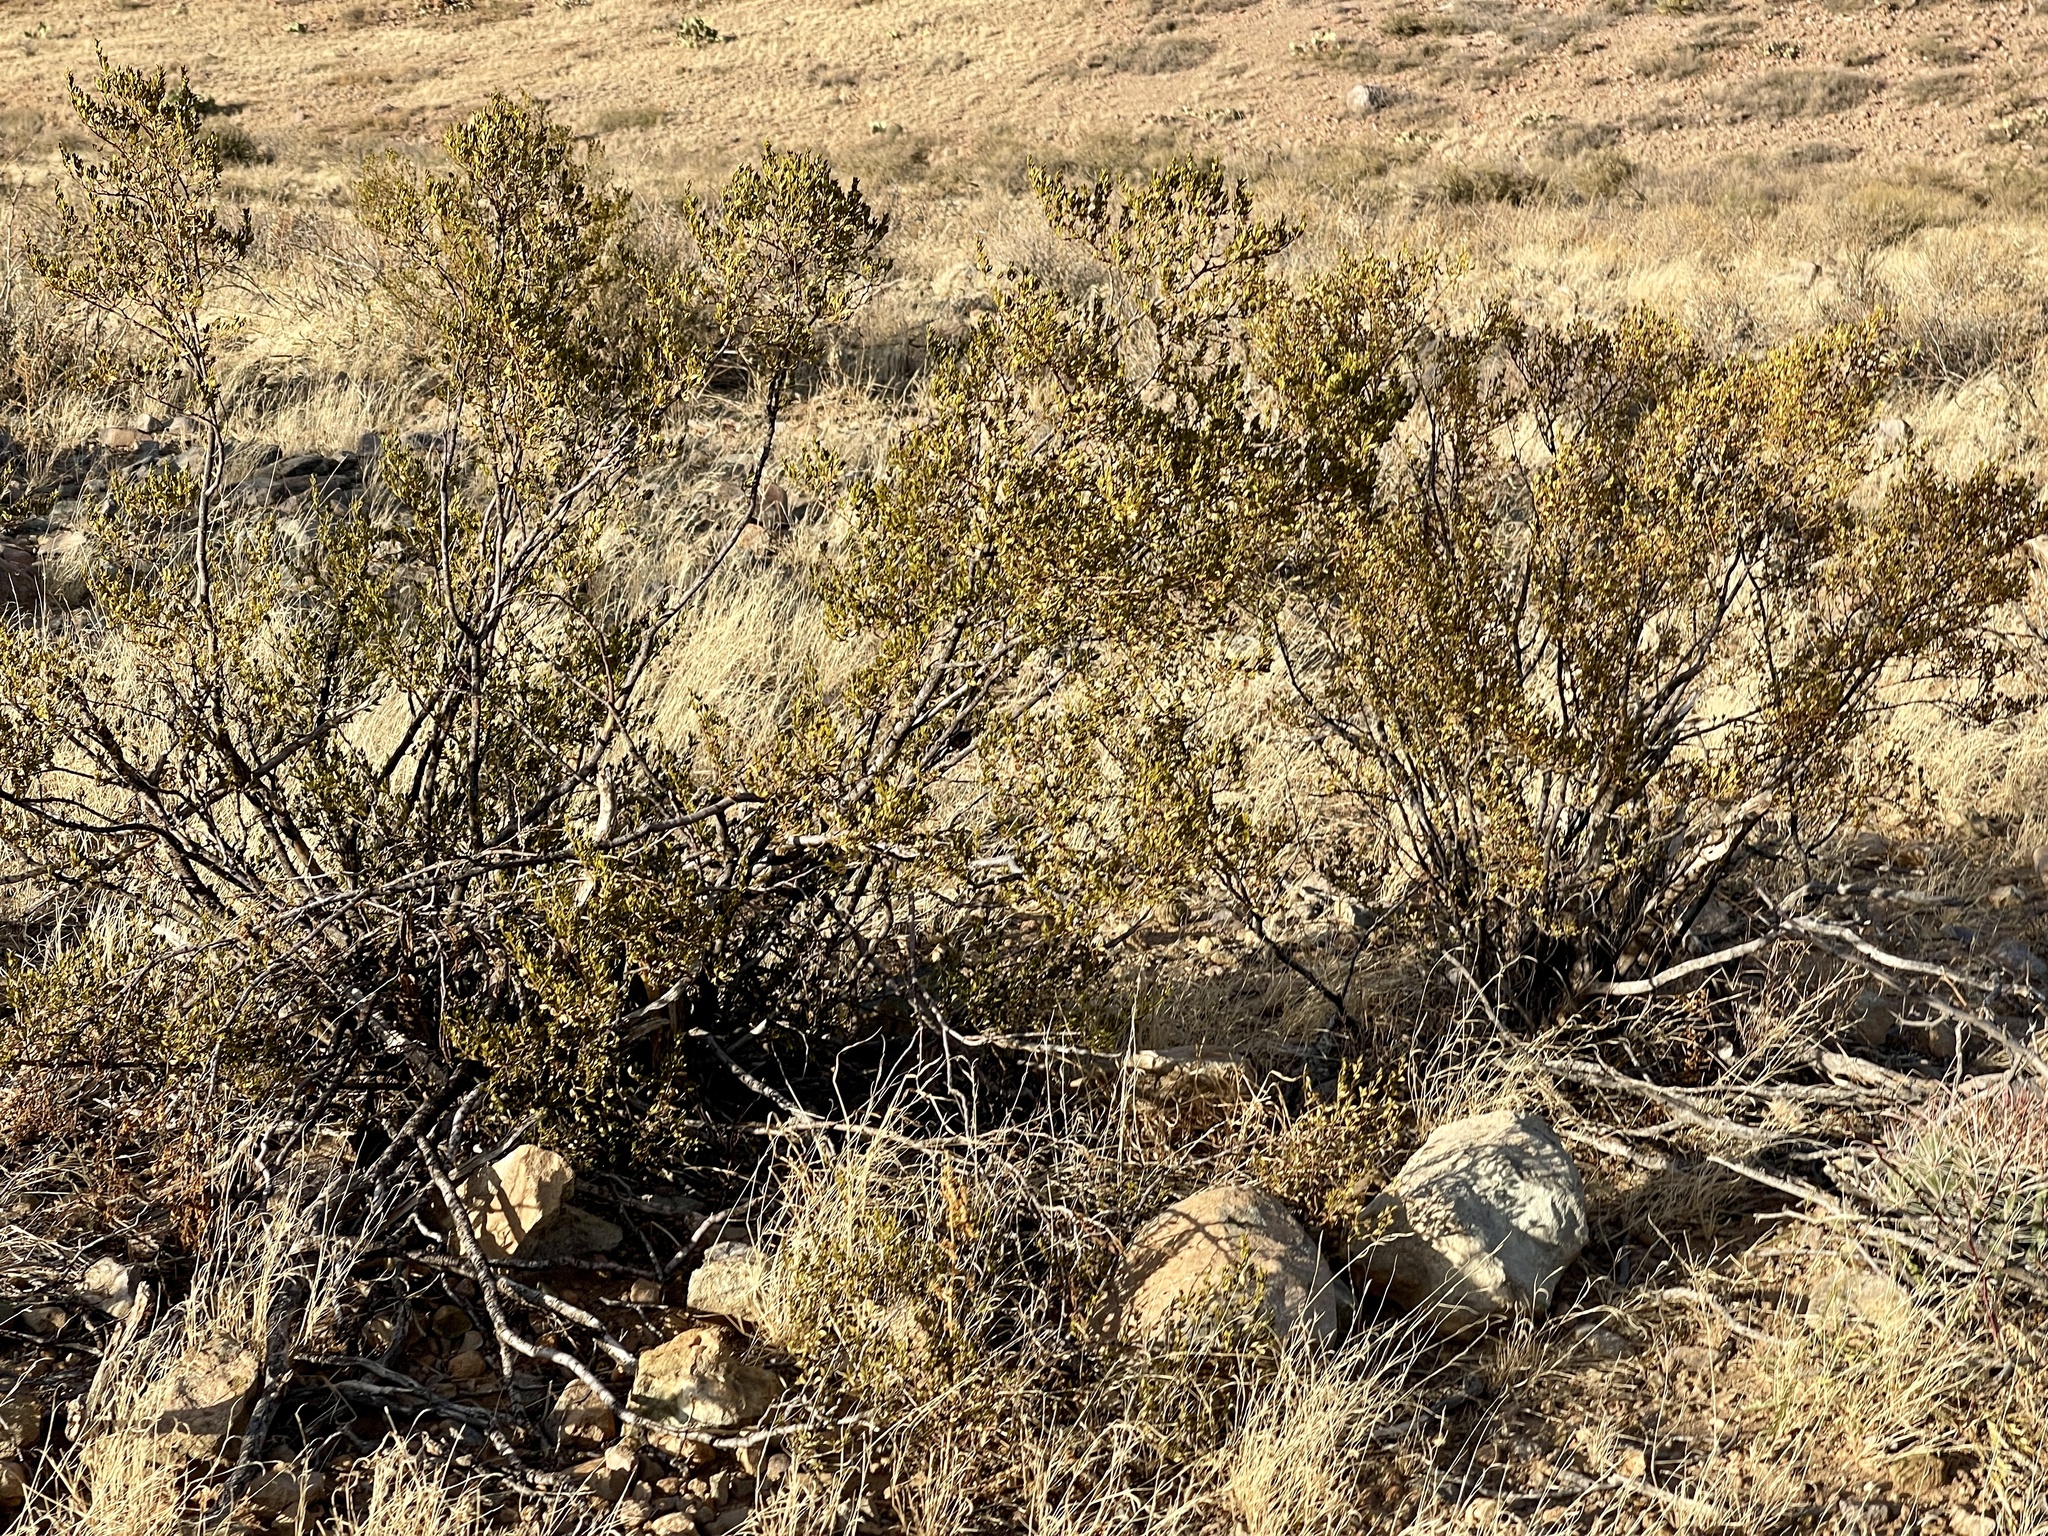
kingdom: Plantae
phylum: Tracheophyta
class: Magnoliopsida
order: Zygophyllales
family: Zygophyllaceae
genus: Larrea
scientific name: Larrea tridentata
